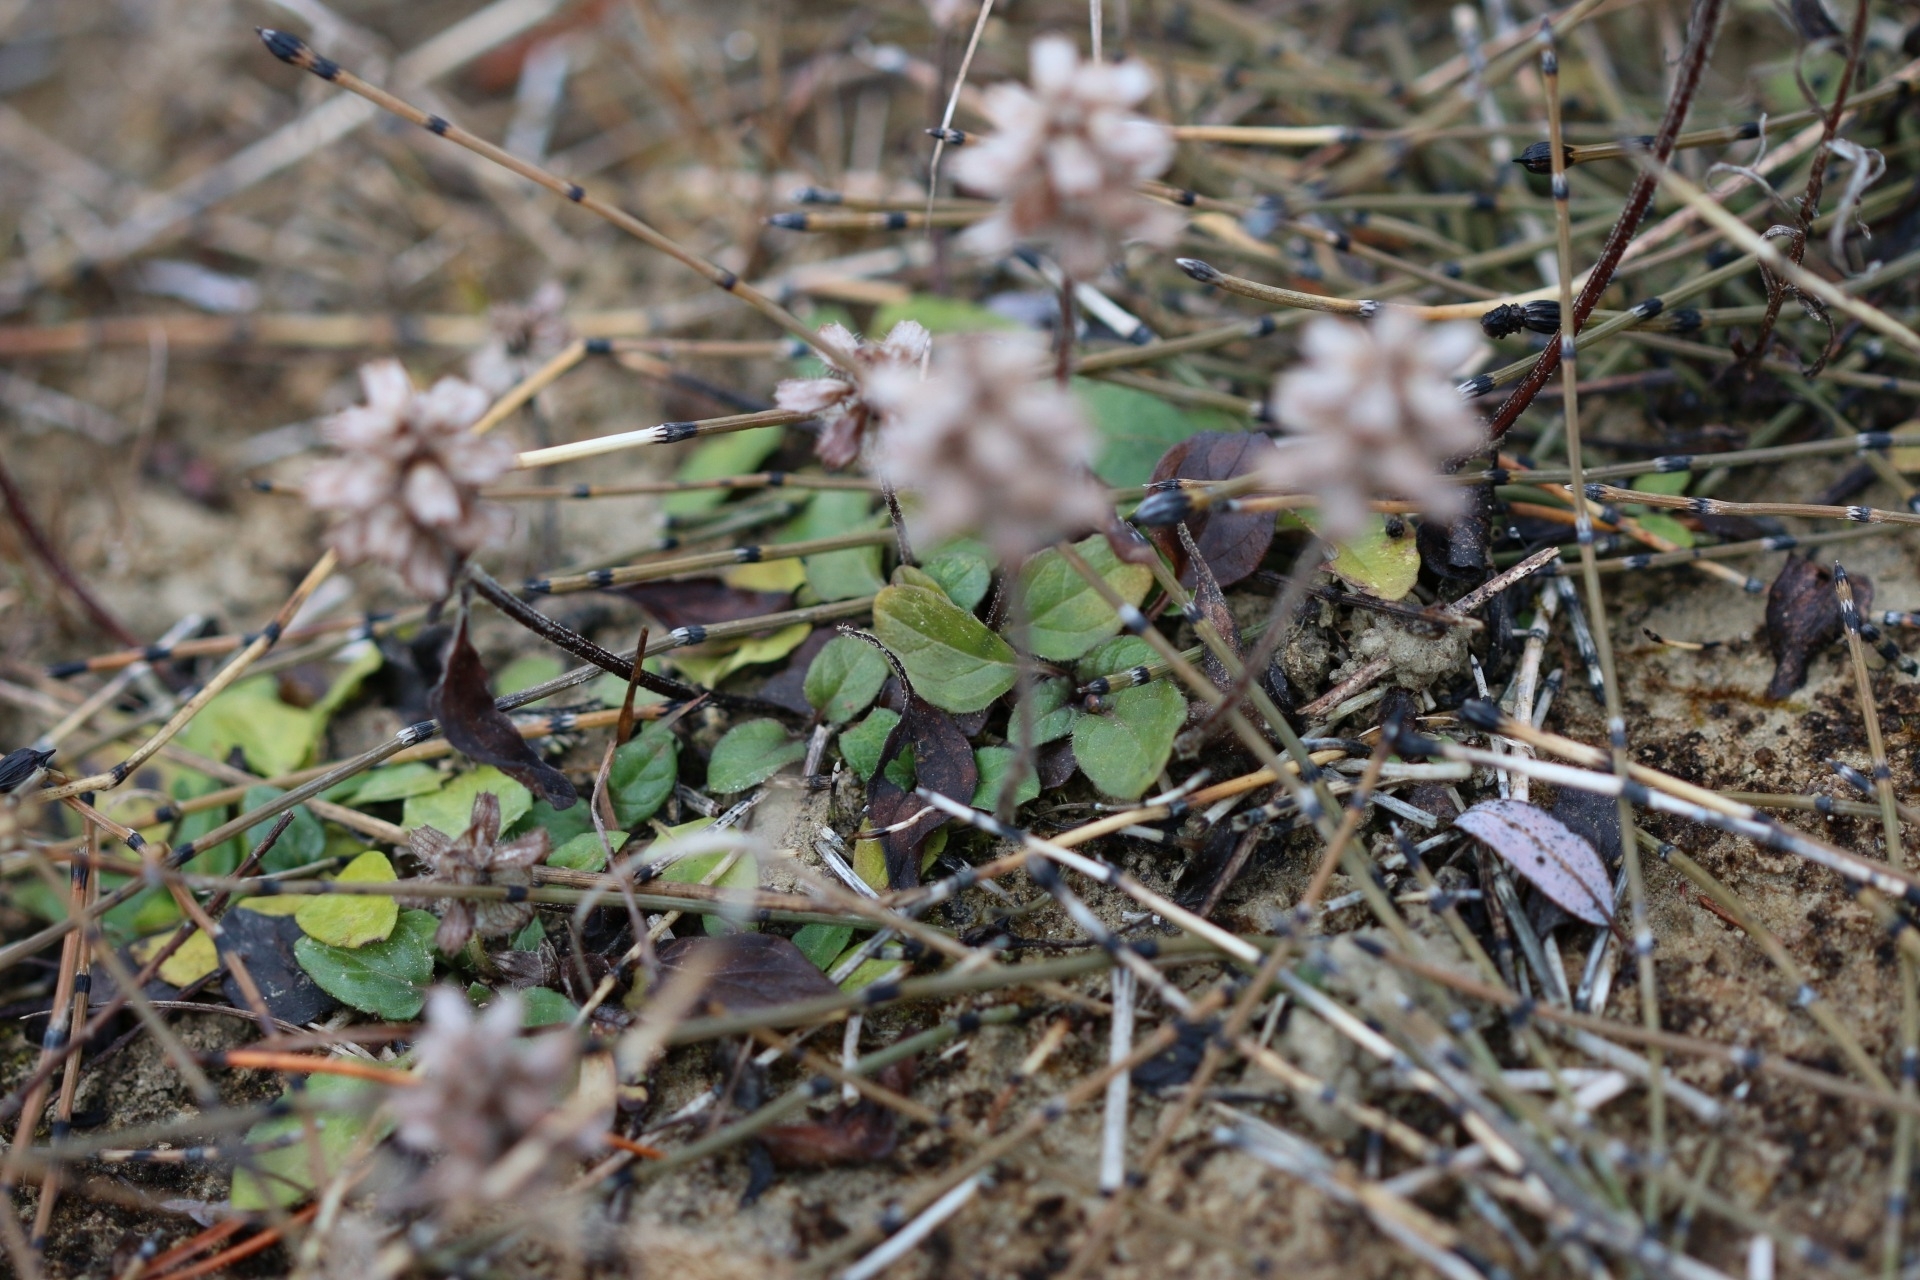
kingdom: Plantae
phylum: Tracheophyta
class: Magnoliopsida
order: Lamiales
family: Lamiaceae
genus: Prunella
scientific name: Prunella vulgaris
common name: Heal-all
